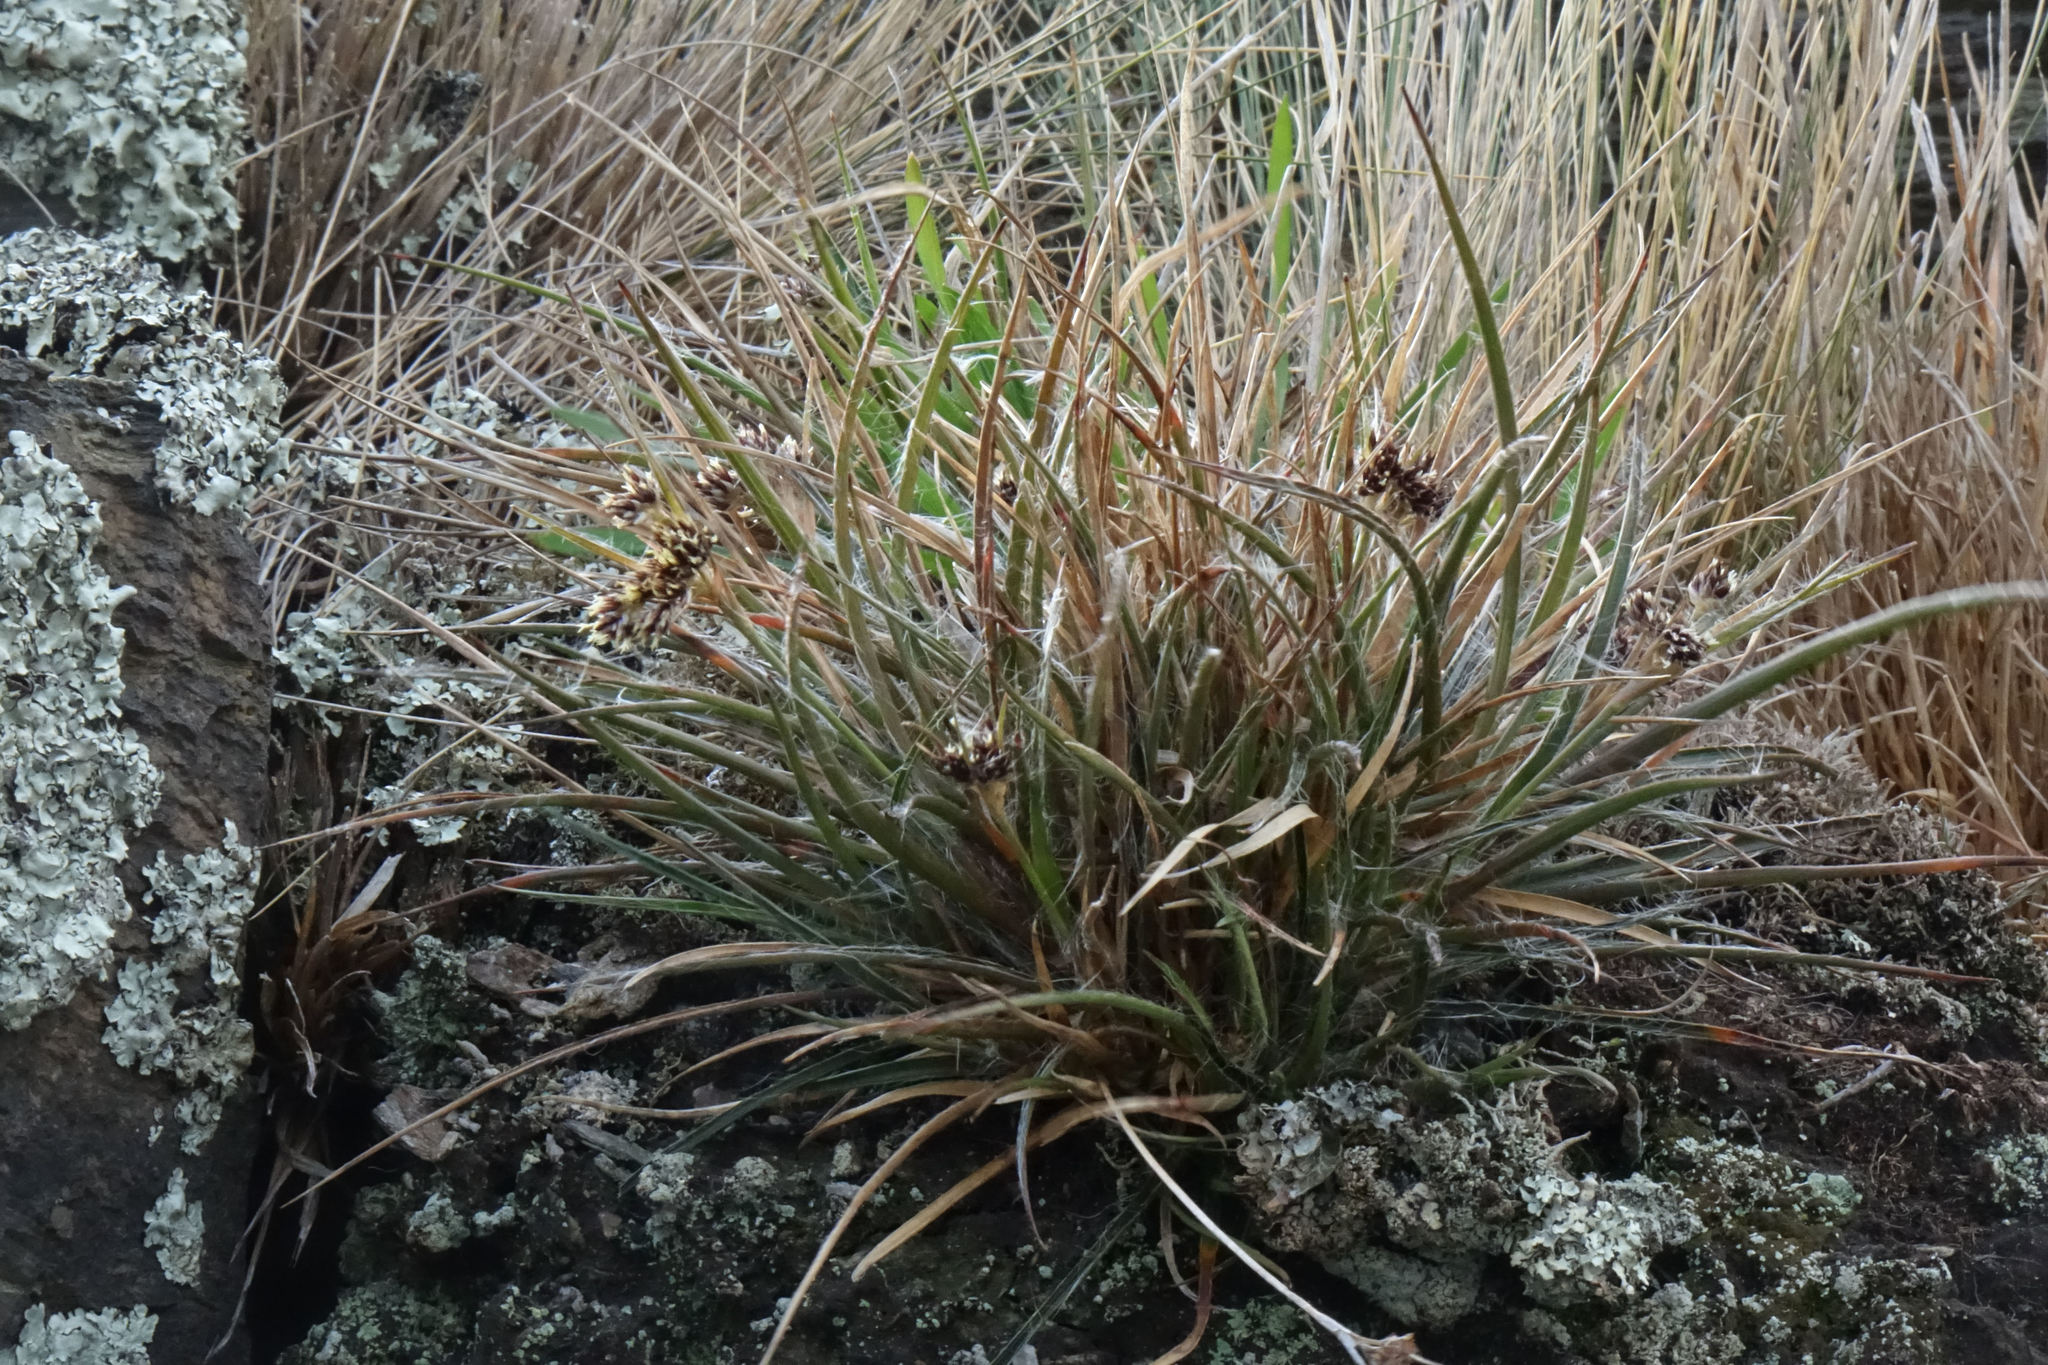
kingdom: Plantae
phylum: Tracheophyta
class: Liliopsida
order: Poales
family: Juncaceae
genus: Luzula
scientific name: Luzula crinita
